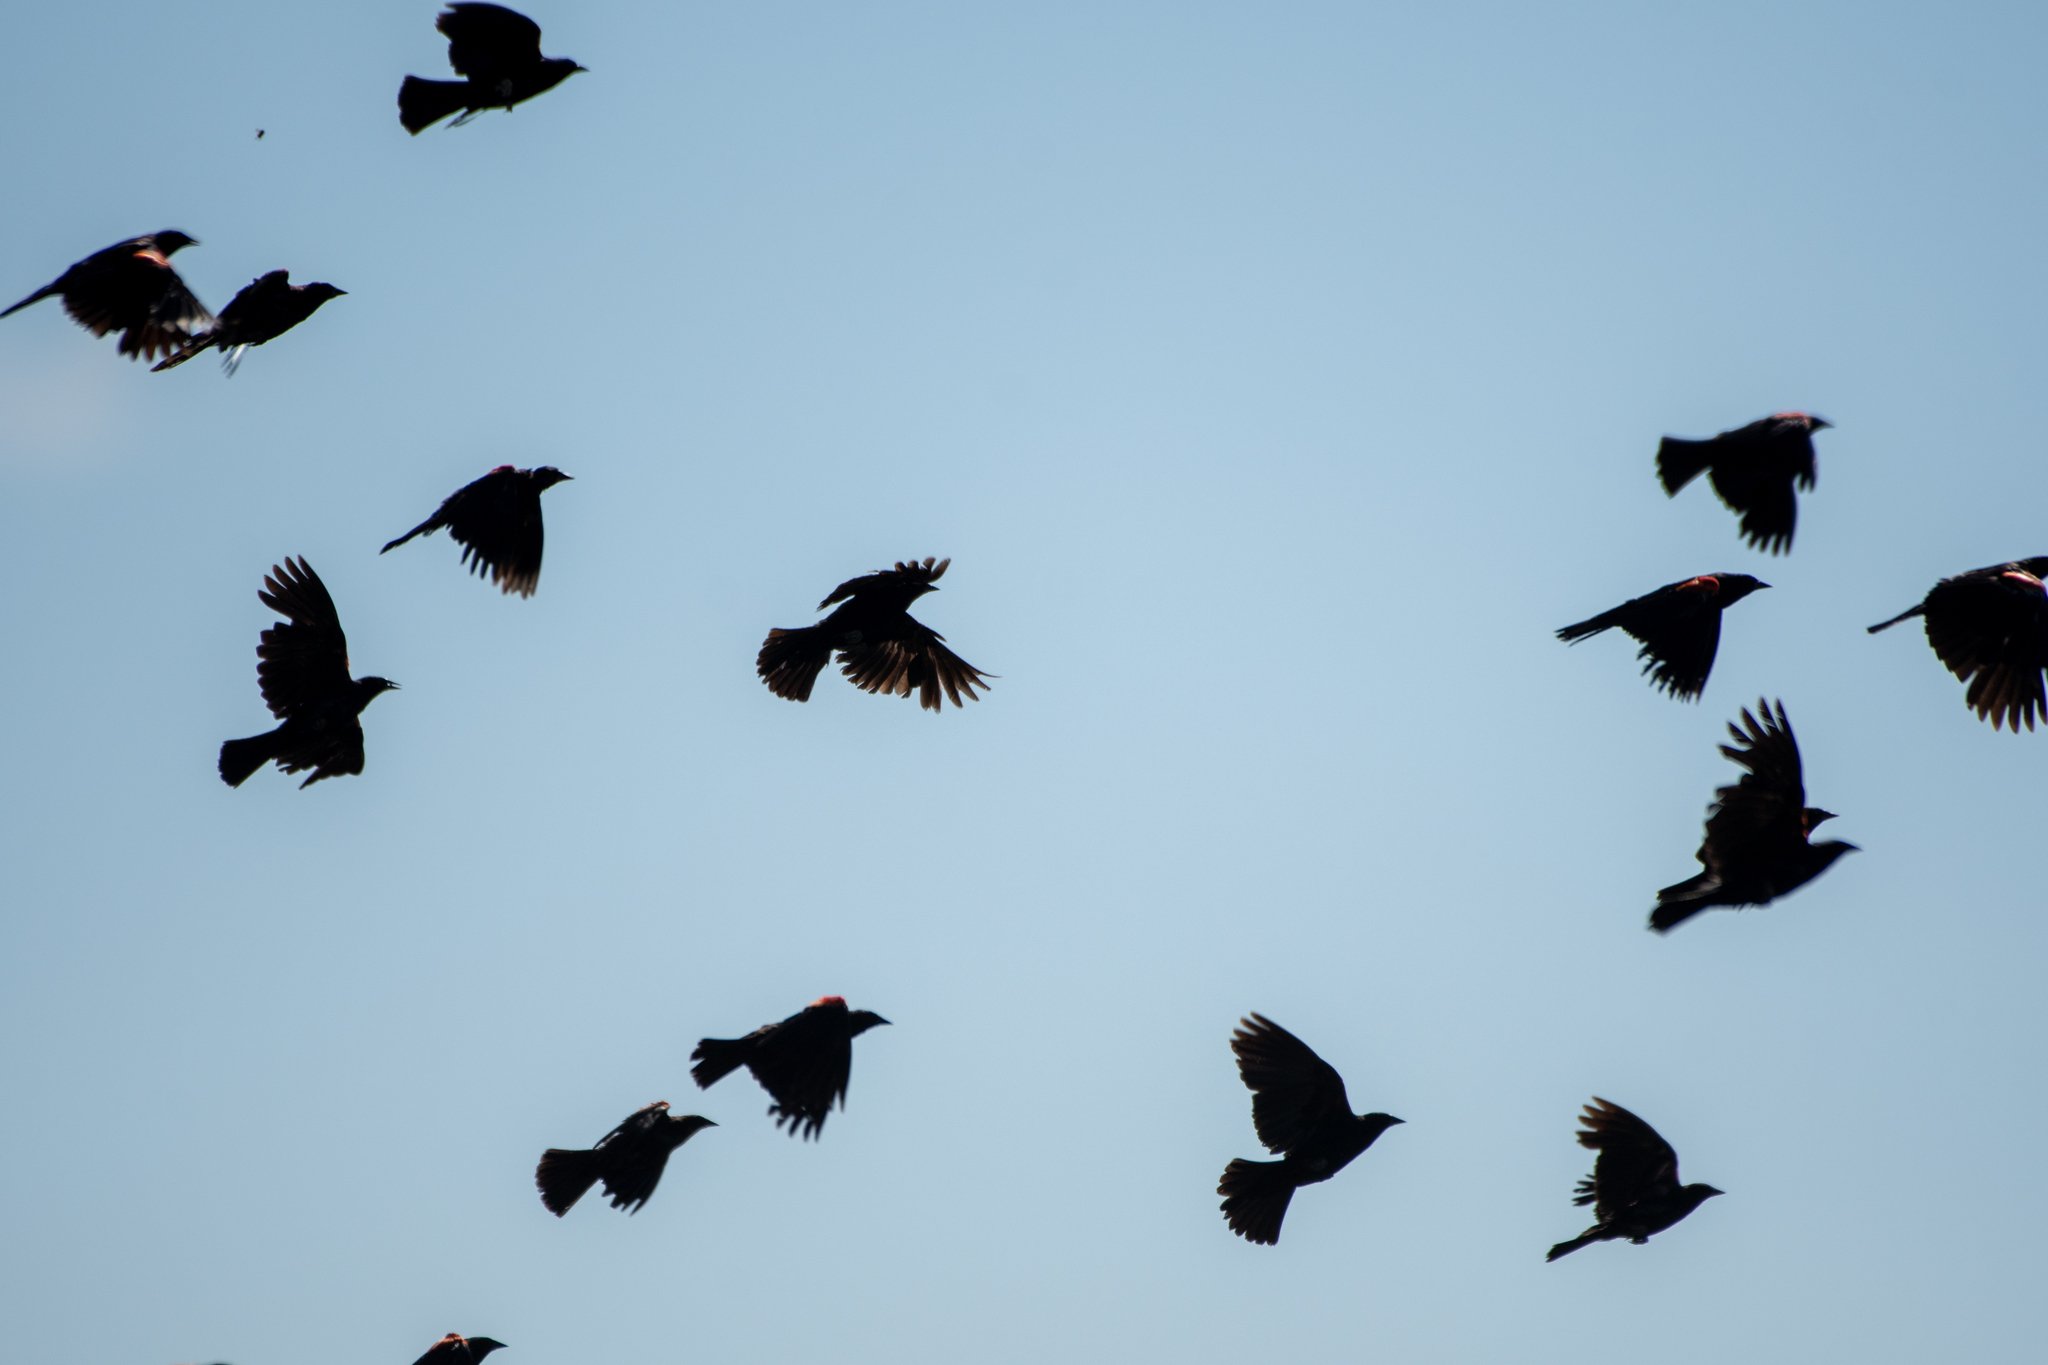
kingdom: Animalia
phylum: Chordata
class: Aves
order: Passeriformes
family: Icteridae
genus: Agelaius
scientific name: Agelaius phoeniceus
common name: Red-winged blackbird
